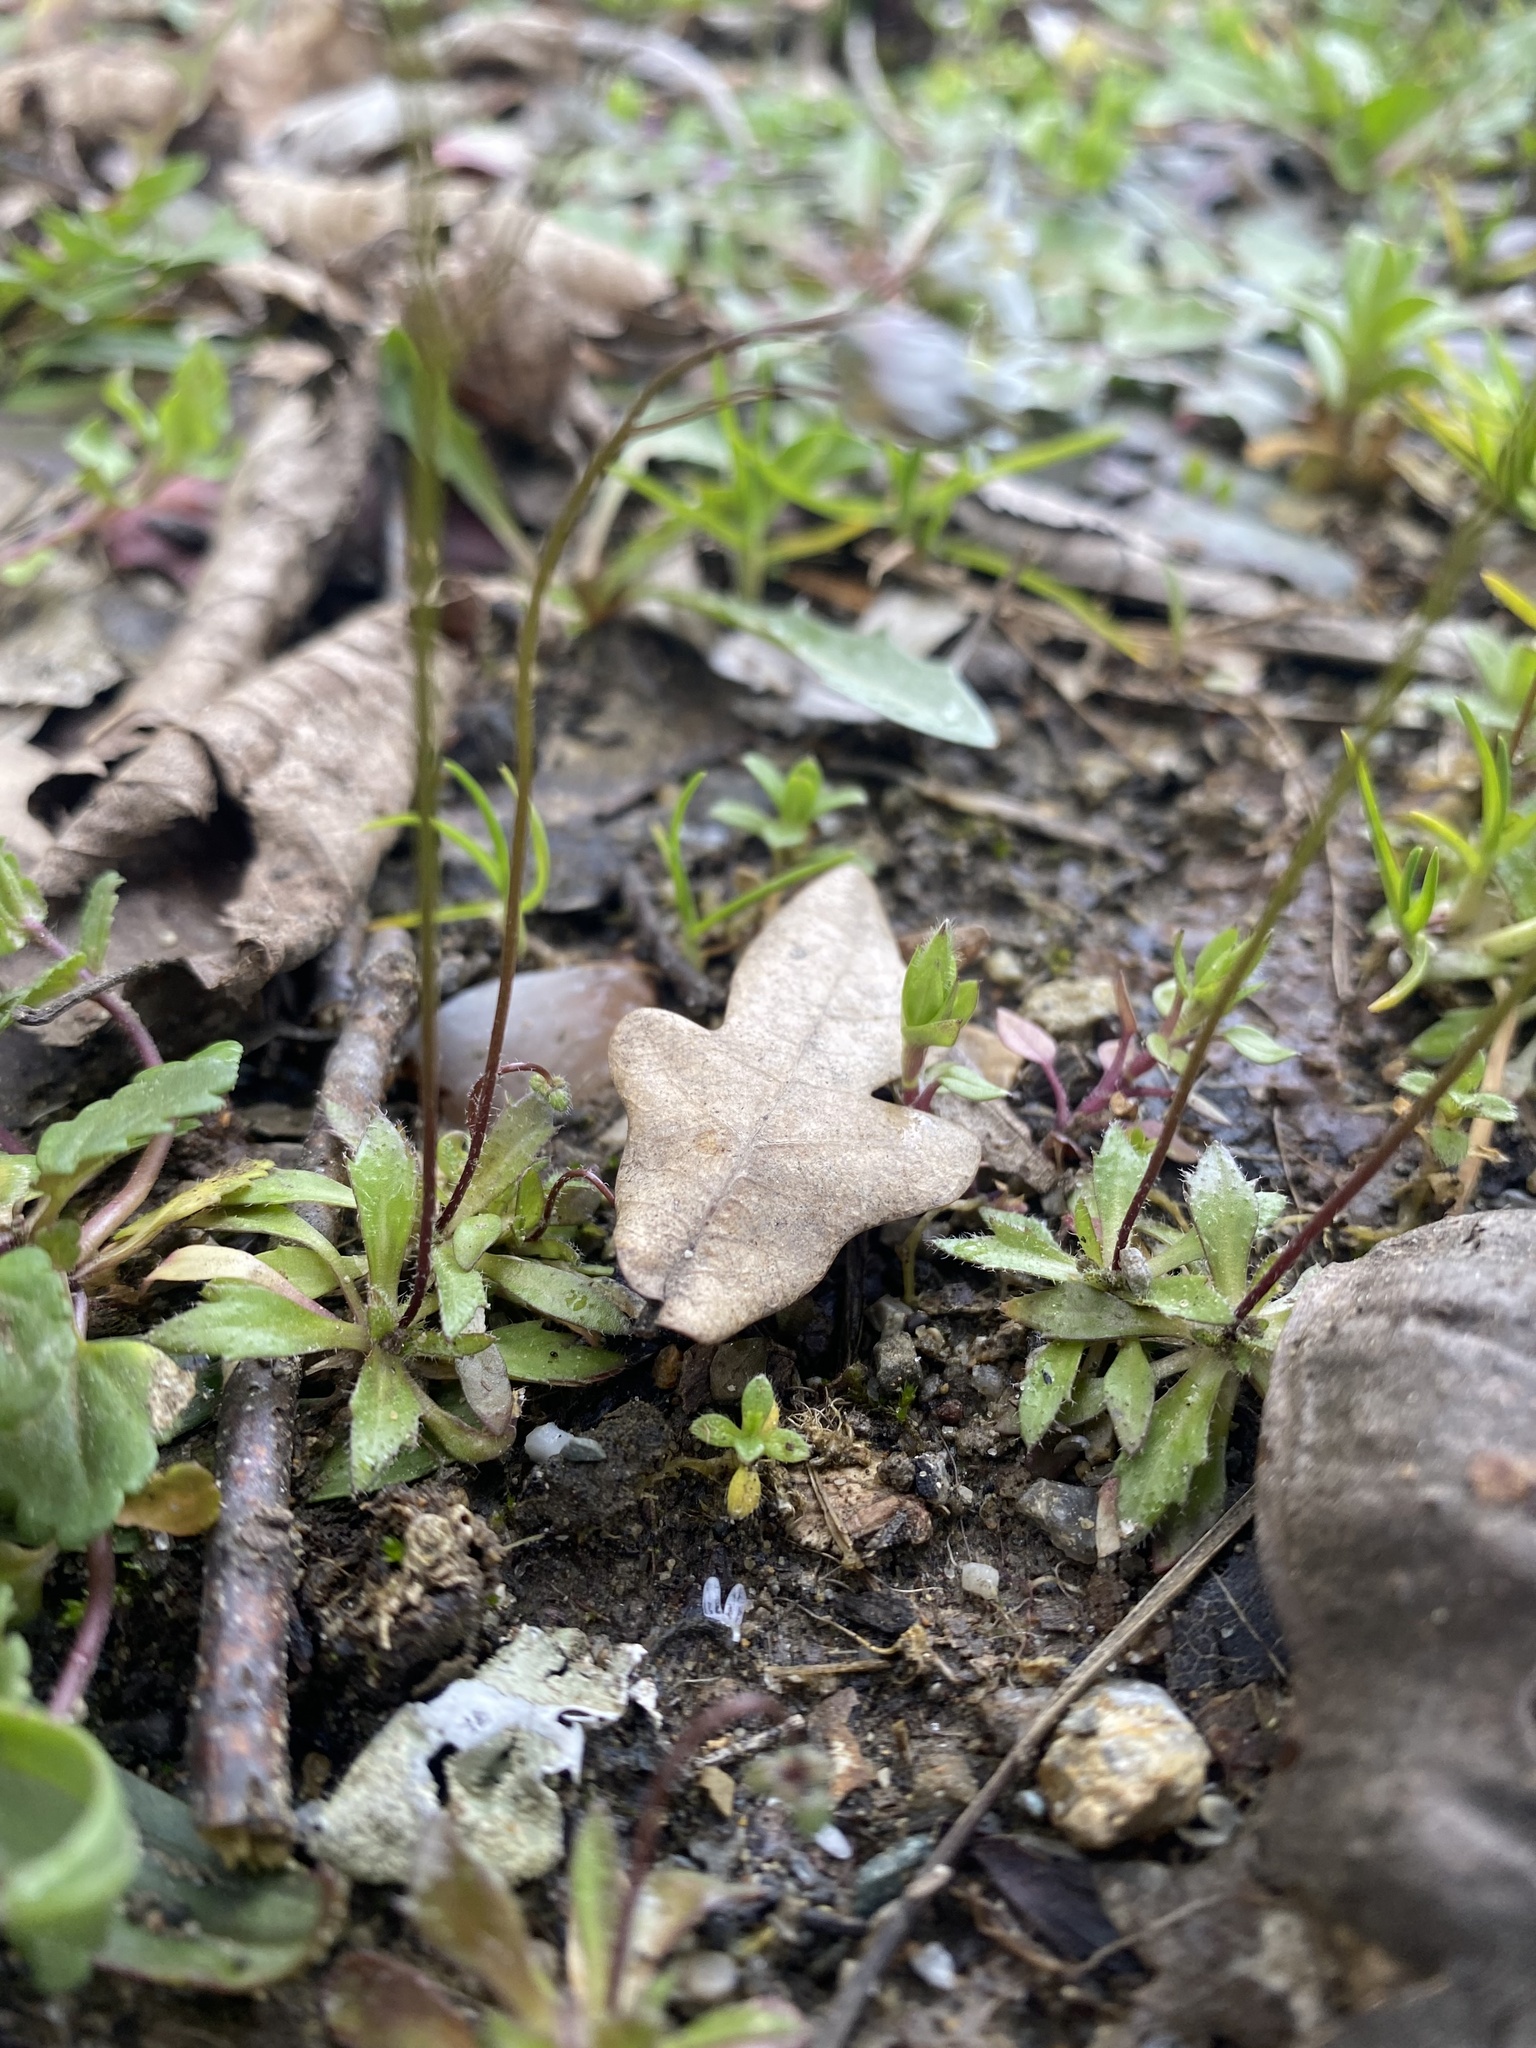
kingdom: Plantae
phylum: Tracheophyta
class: Magnoliopsida
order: Brassicales
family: Brassicaceae
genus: Draba
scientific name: Draba verna
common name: Spring draba
